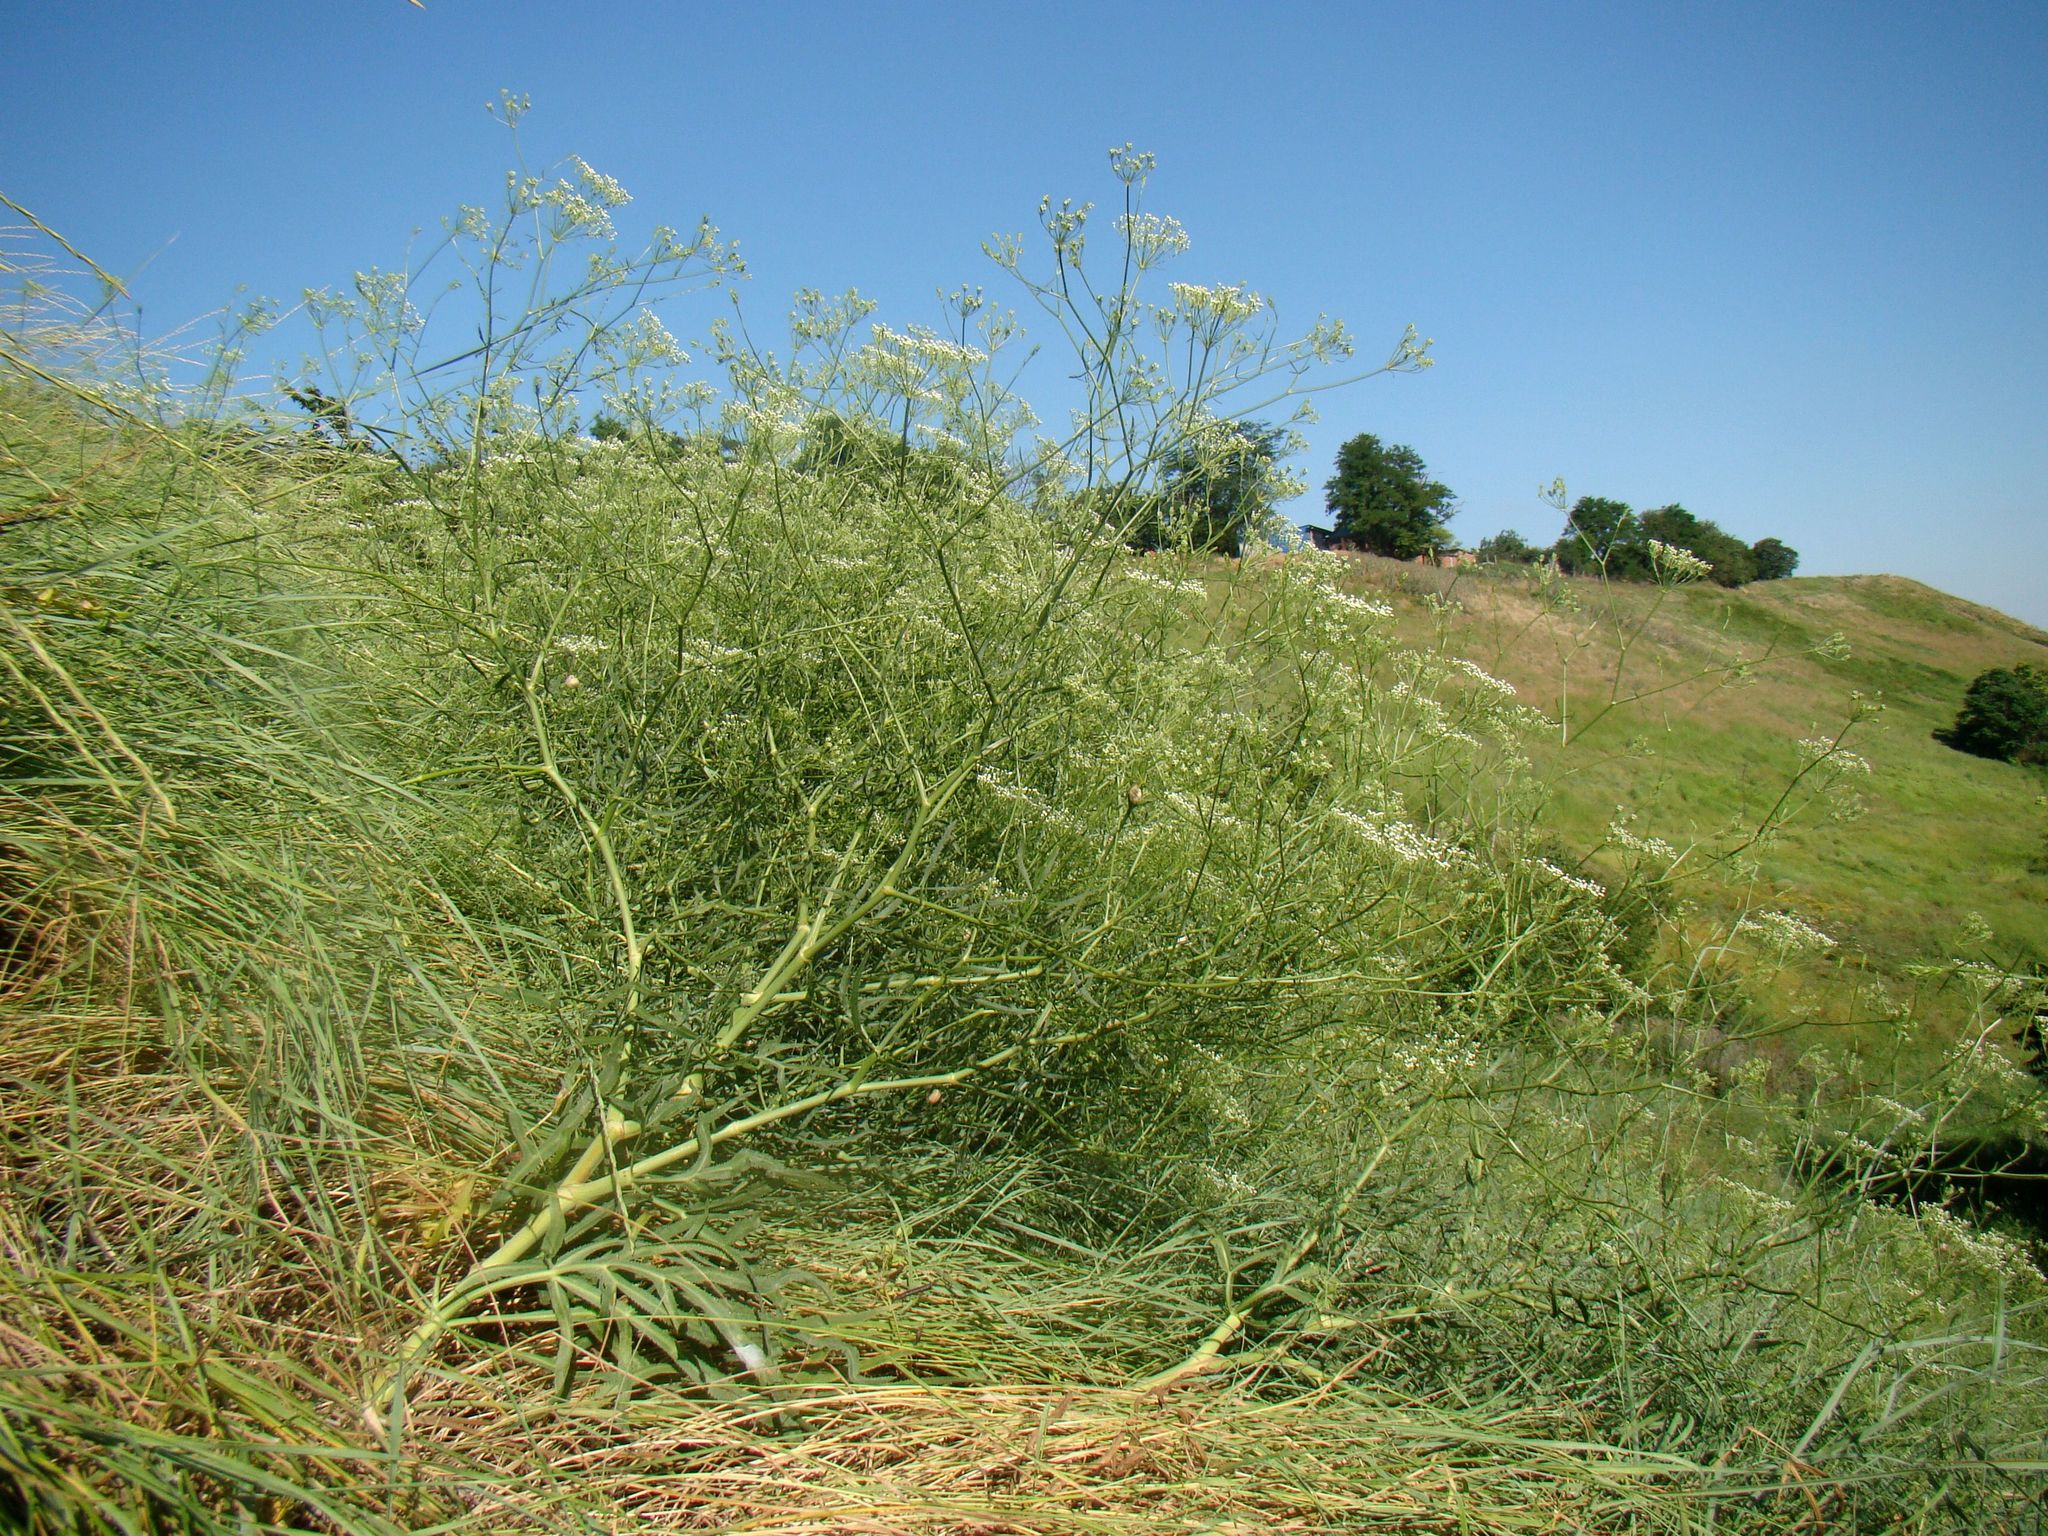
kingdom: Plantae
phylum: Tracheophyta
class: Magnoliopsida
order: Apiales
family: Apiaceae
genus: Falcaria
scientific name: Falcaria vulgaris
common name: Longleaf
